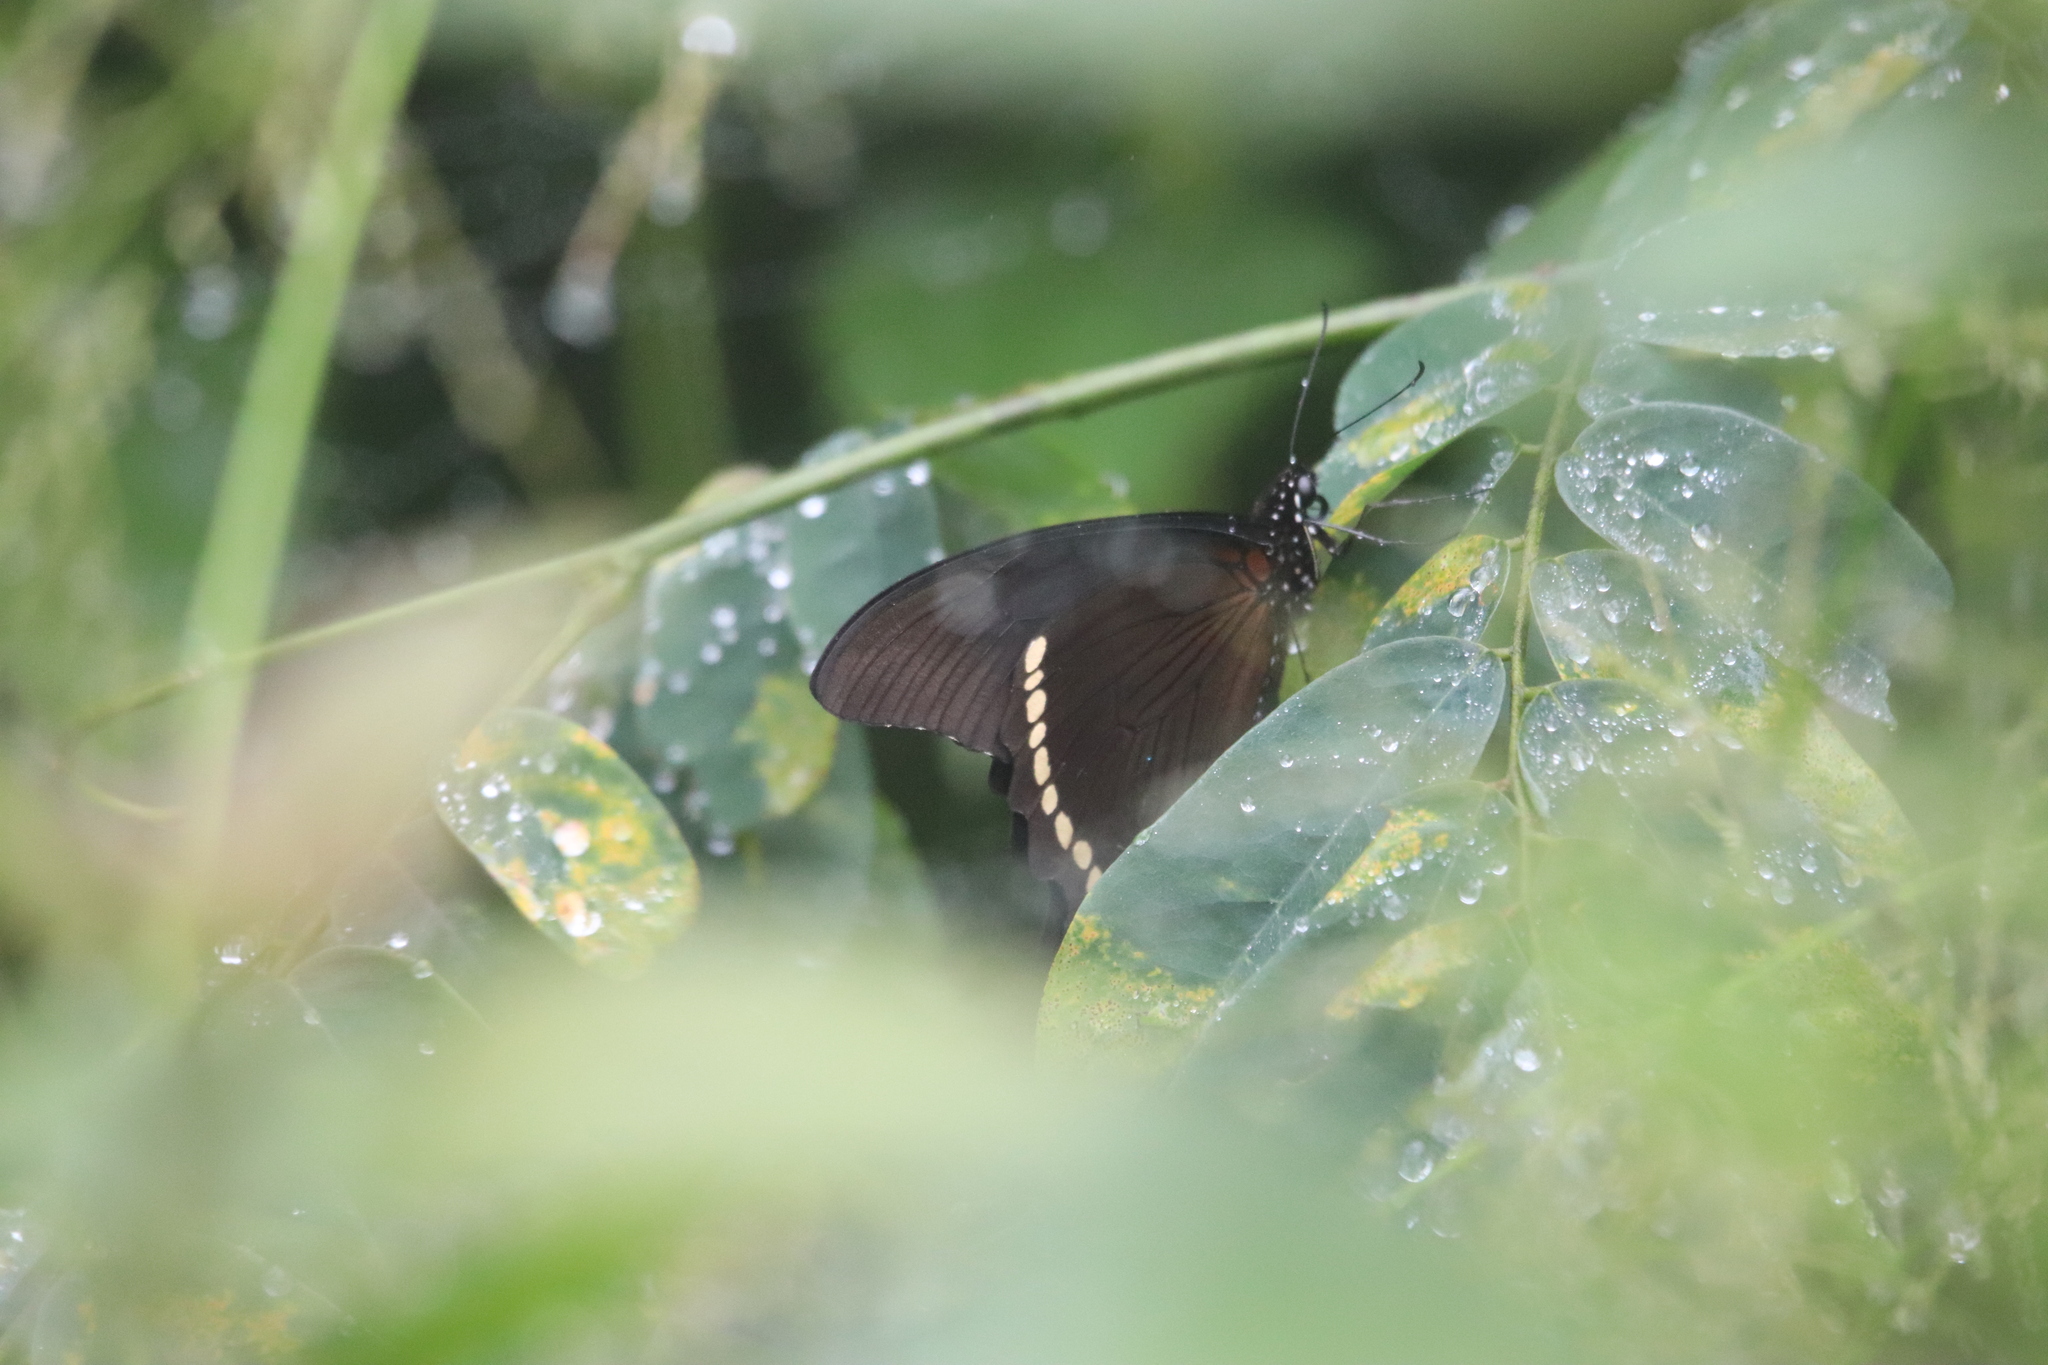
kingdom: Animalia
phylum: Arthropoda
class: Insecta
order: Lepidoptera
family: Papilionidae
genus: Papilio
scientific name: Papilio nireus
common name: Greenbanded swallowtail
